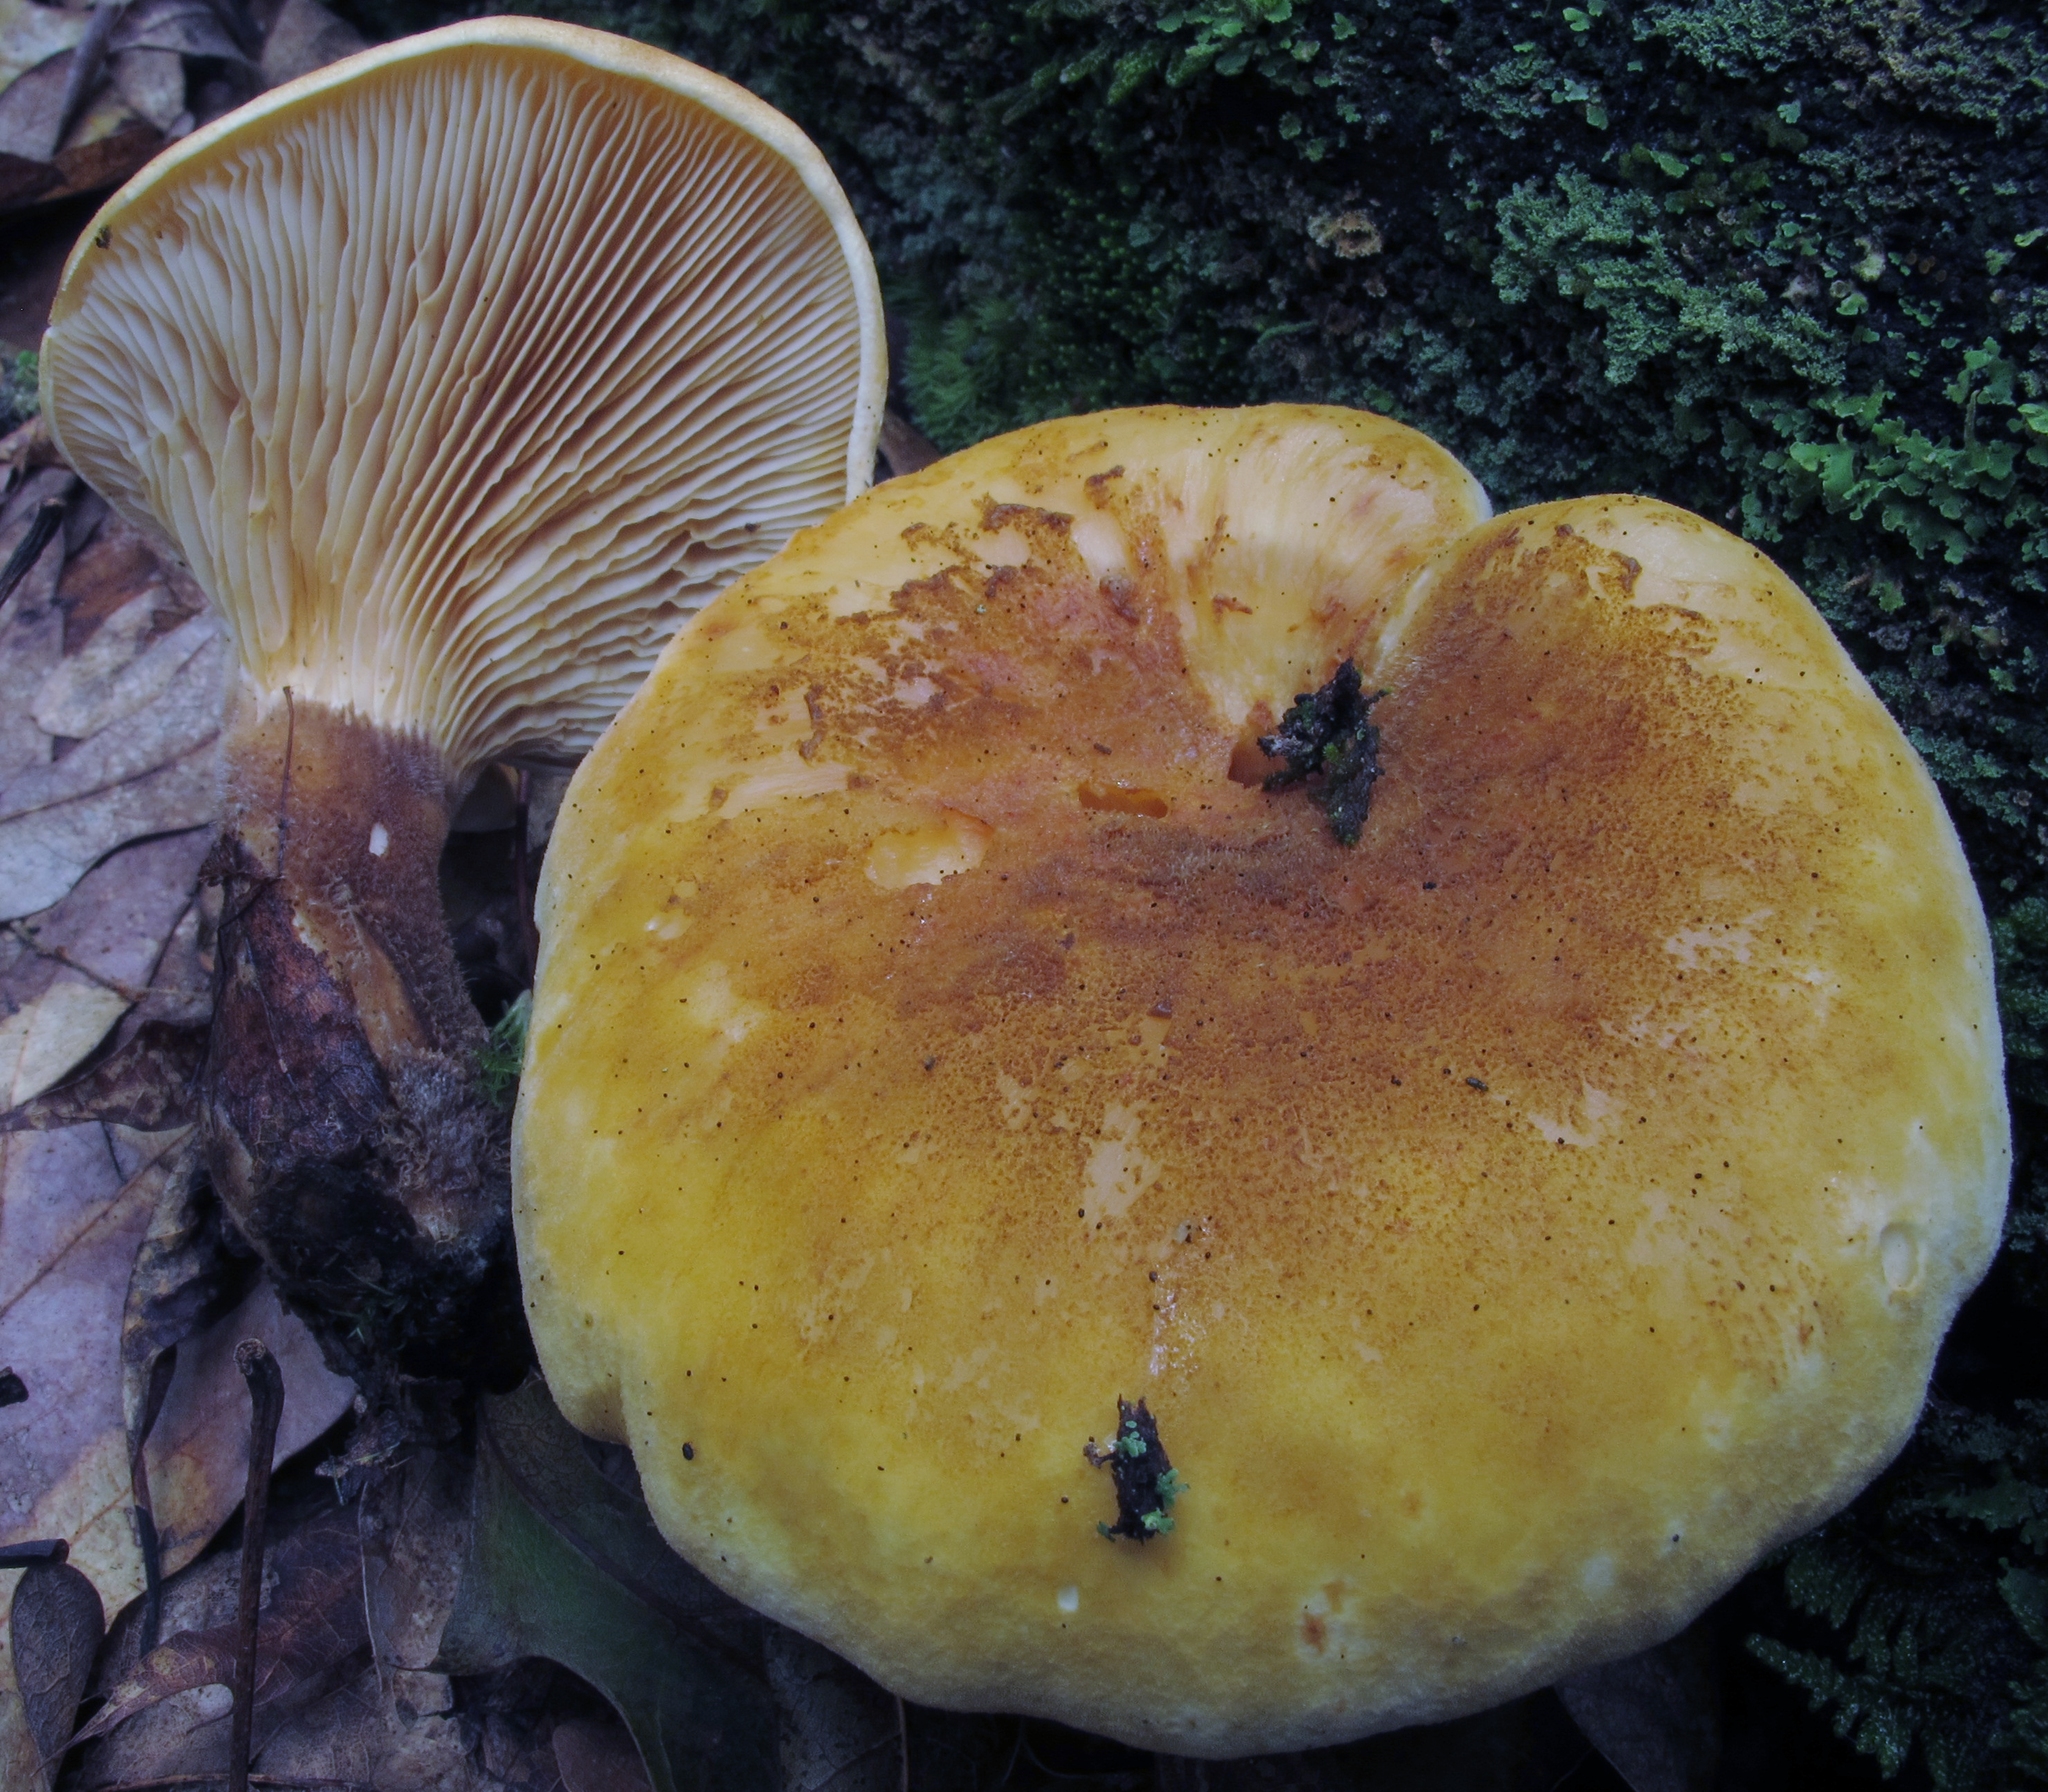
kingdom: Fungi
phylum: Basidiomycota
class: Agaricomycetes
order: Boletales
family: Tapinellaceae
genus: Tapinella
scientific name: Tapinella atrotomentosa
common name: Velvet rollrim
